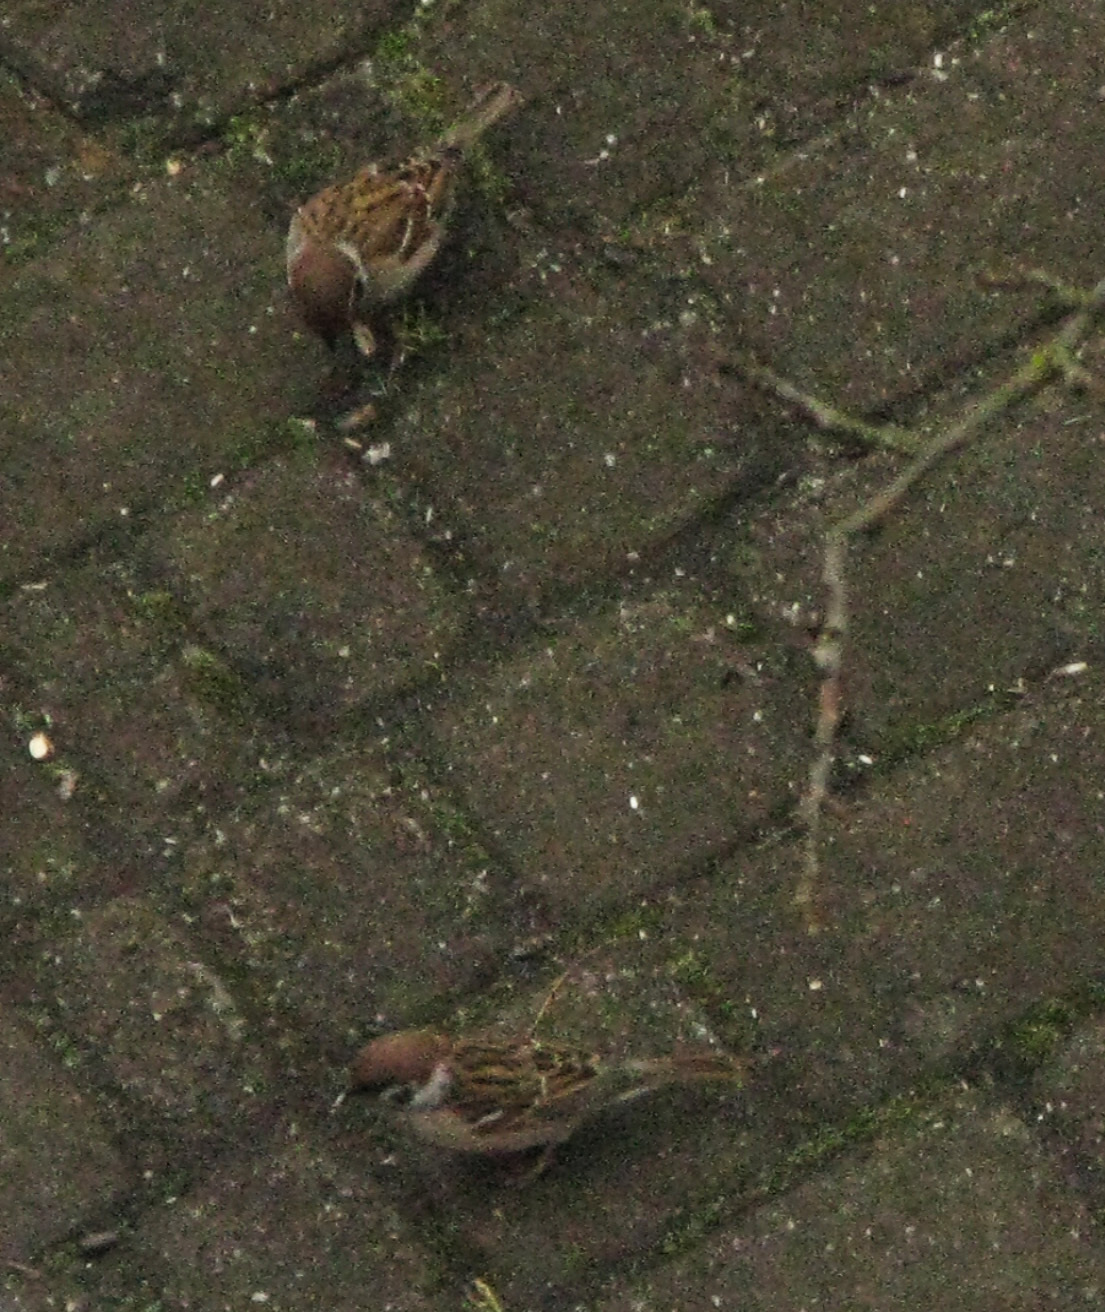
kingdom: Animalia
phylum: Chordata
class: Aves
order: Passeriformes
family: Passeridae
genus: Passer
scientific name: Passer montanus
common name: Eurasian tree sparrow
